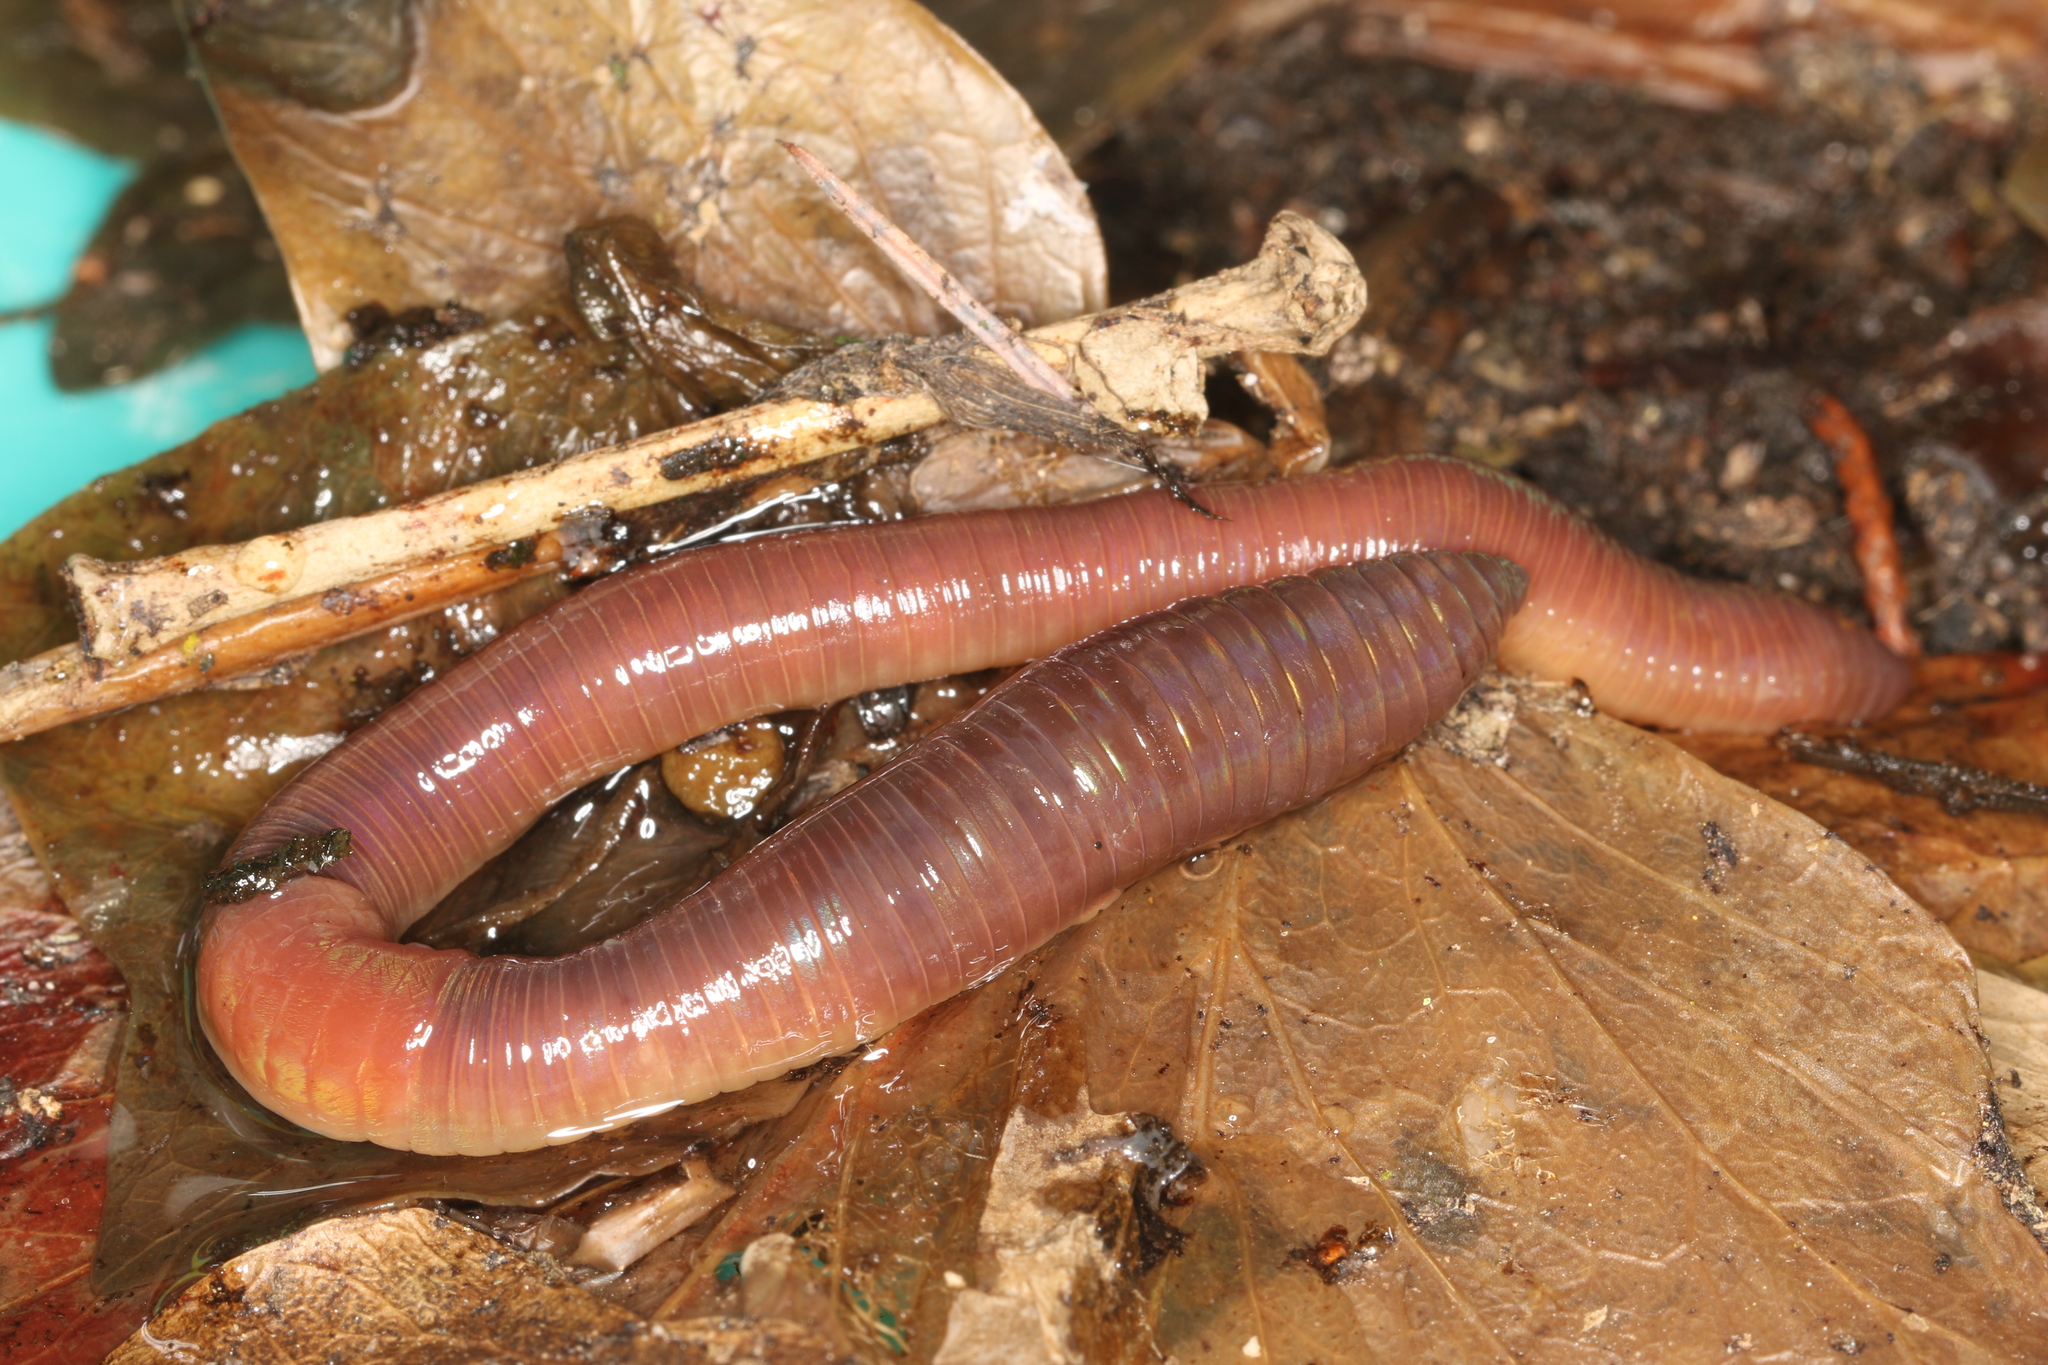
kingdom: Animalia
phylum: Annelida
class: Clitellata
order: Crassiclitellata
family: Lumbricidae
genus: Lumbricus
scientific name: Lumbricus terrestris
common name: Common earthworm
